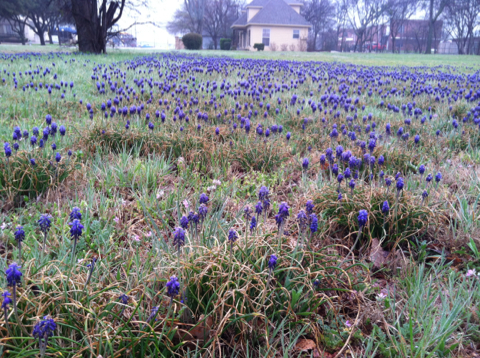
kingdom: Plantae
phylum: Tracheophyta
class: Liliopsida
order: Asparagales
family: Asparagaceae
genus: Muscari
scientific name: Muscari neglectum
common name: Grape-hyacinth
